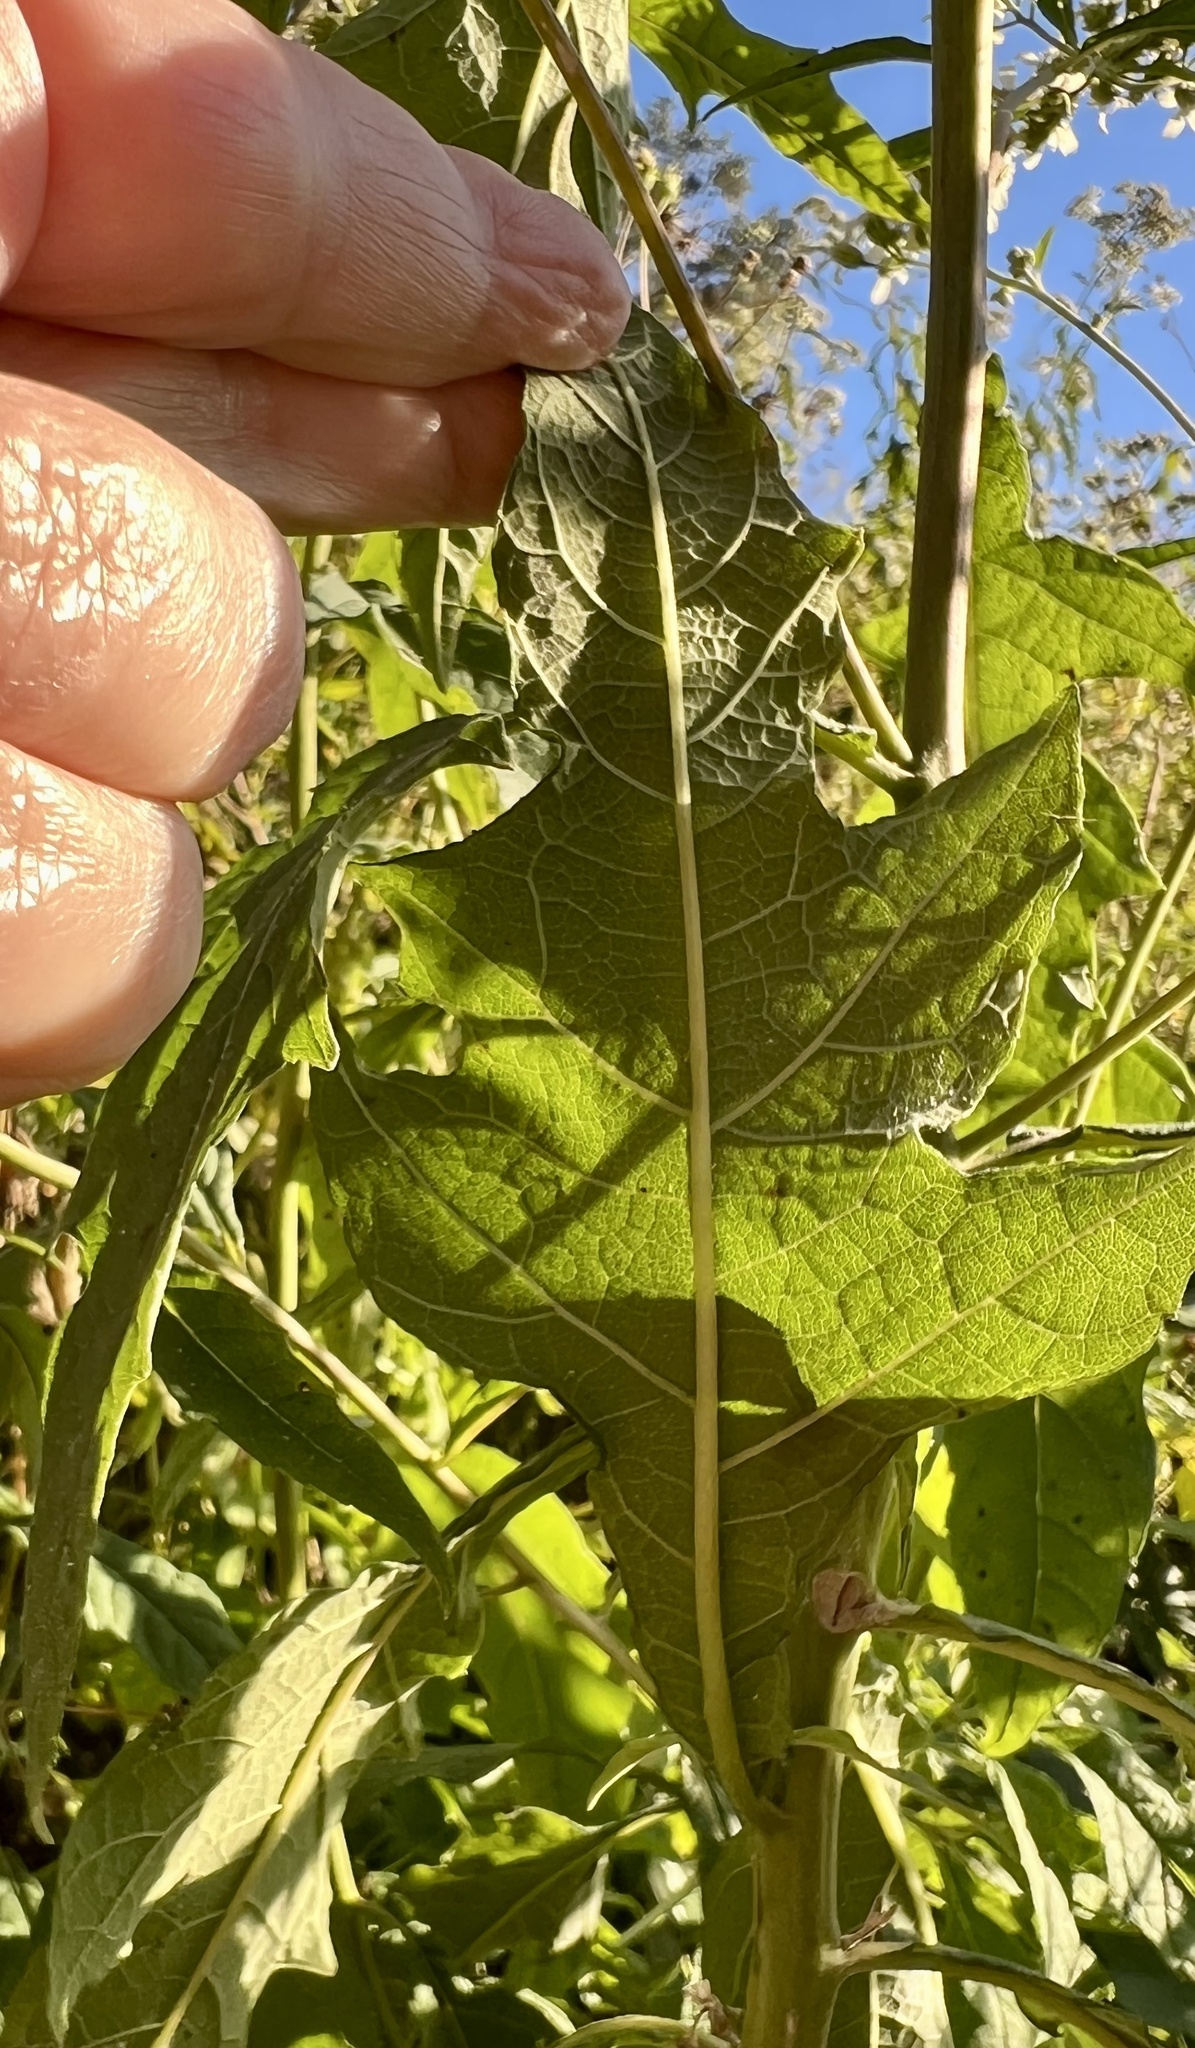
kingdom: Plantae
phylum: Tracheophyta
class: Magnoliopsida
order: Asterales
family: Asteraceae
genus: Verbesina
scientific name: Verbesina virginica
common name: Frostweed
